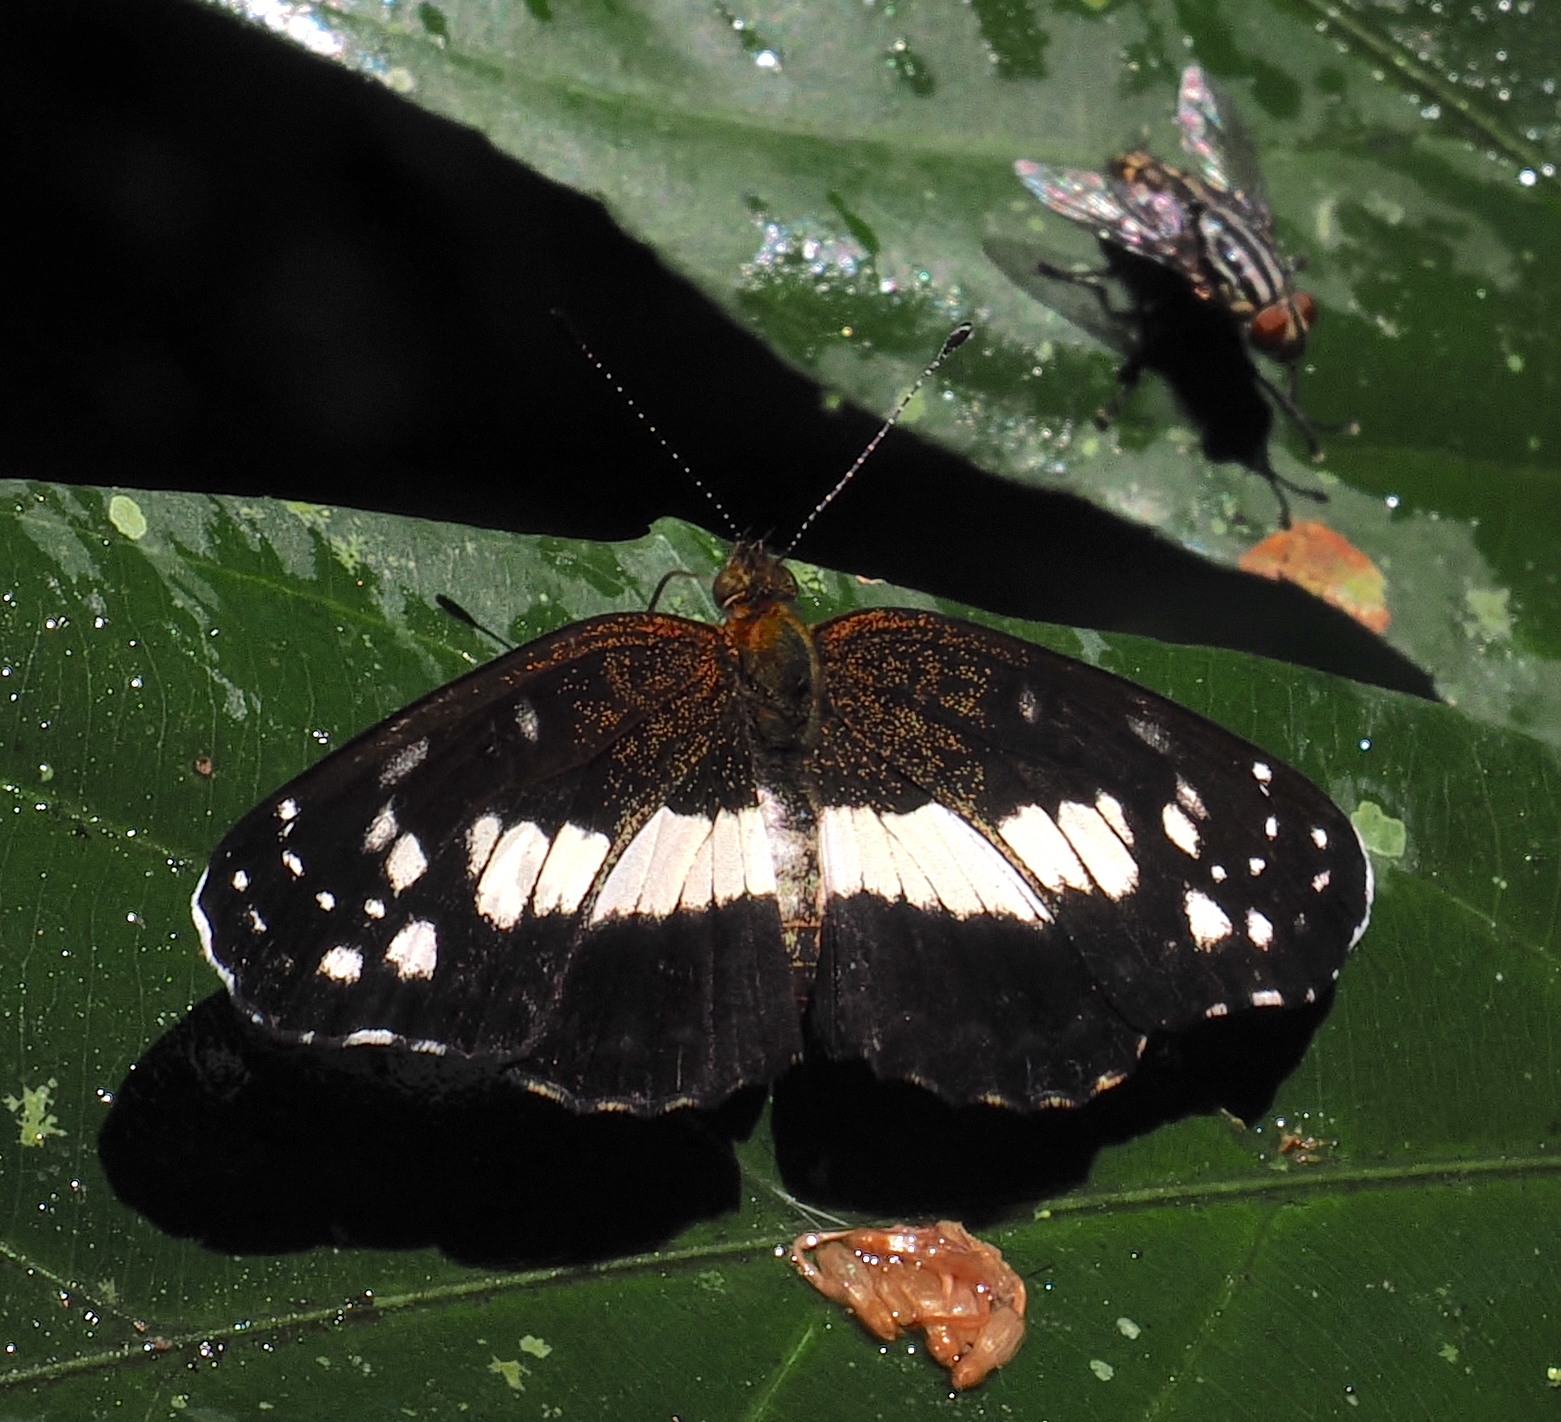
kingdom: Animalia
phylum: Arthropoda
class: Insecta
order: Lepidoptera
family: Nymphalidae
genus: Castilia
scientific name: Castilia ofella
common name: White-dotted crescent
